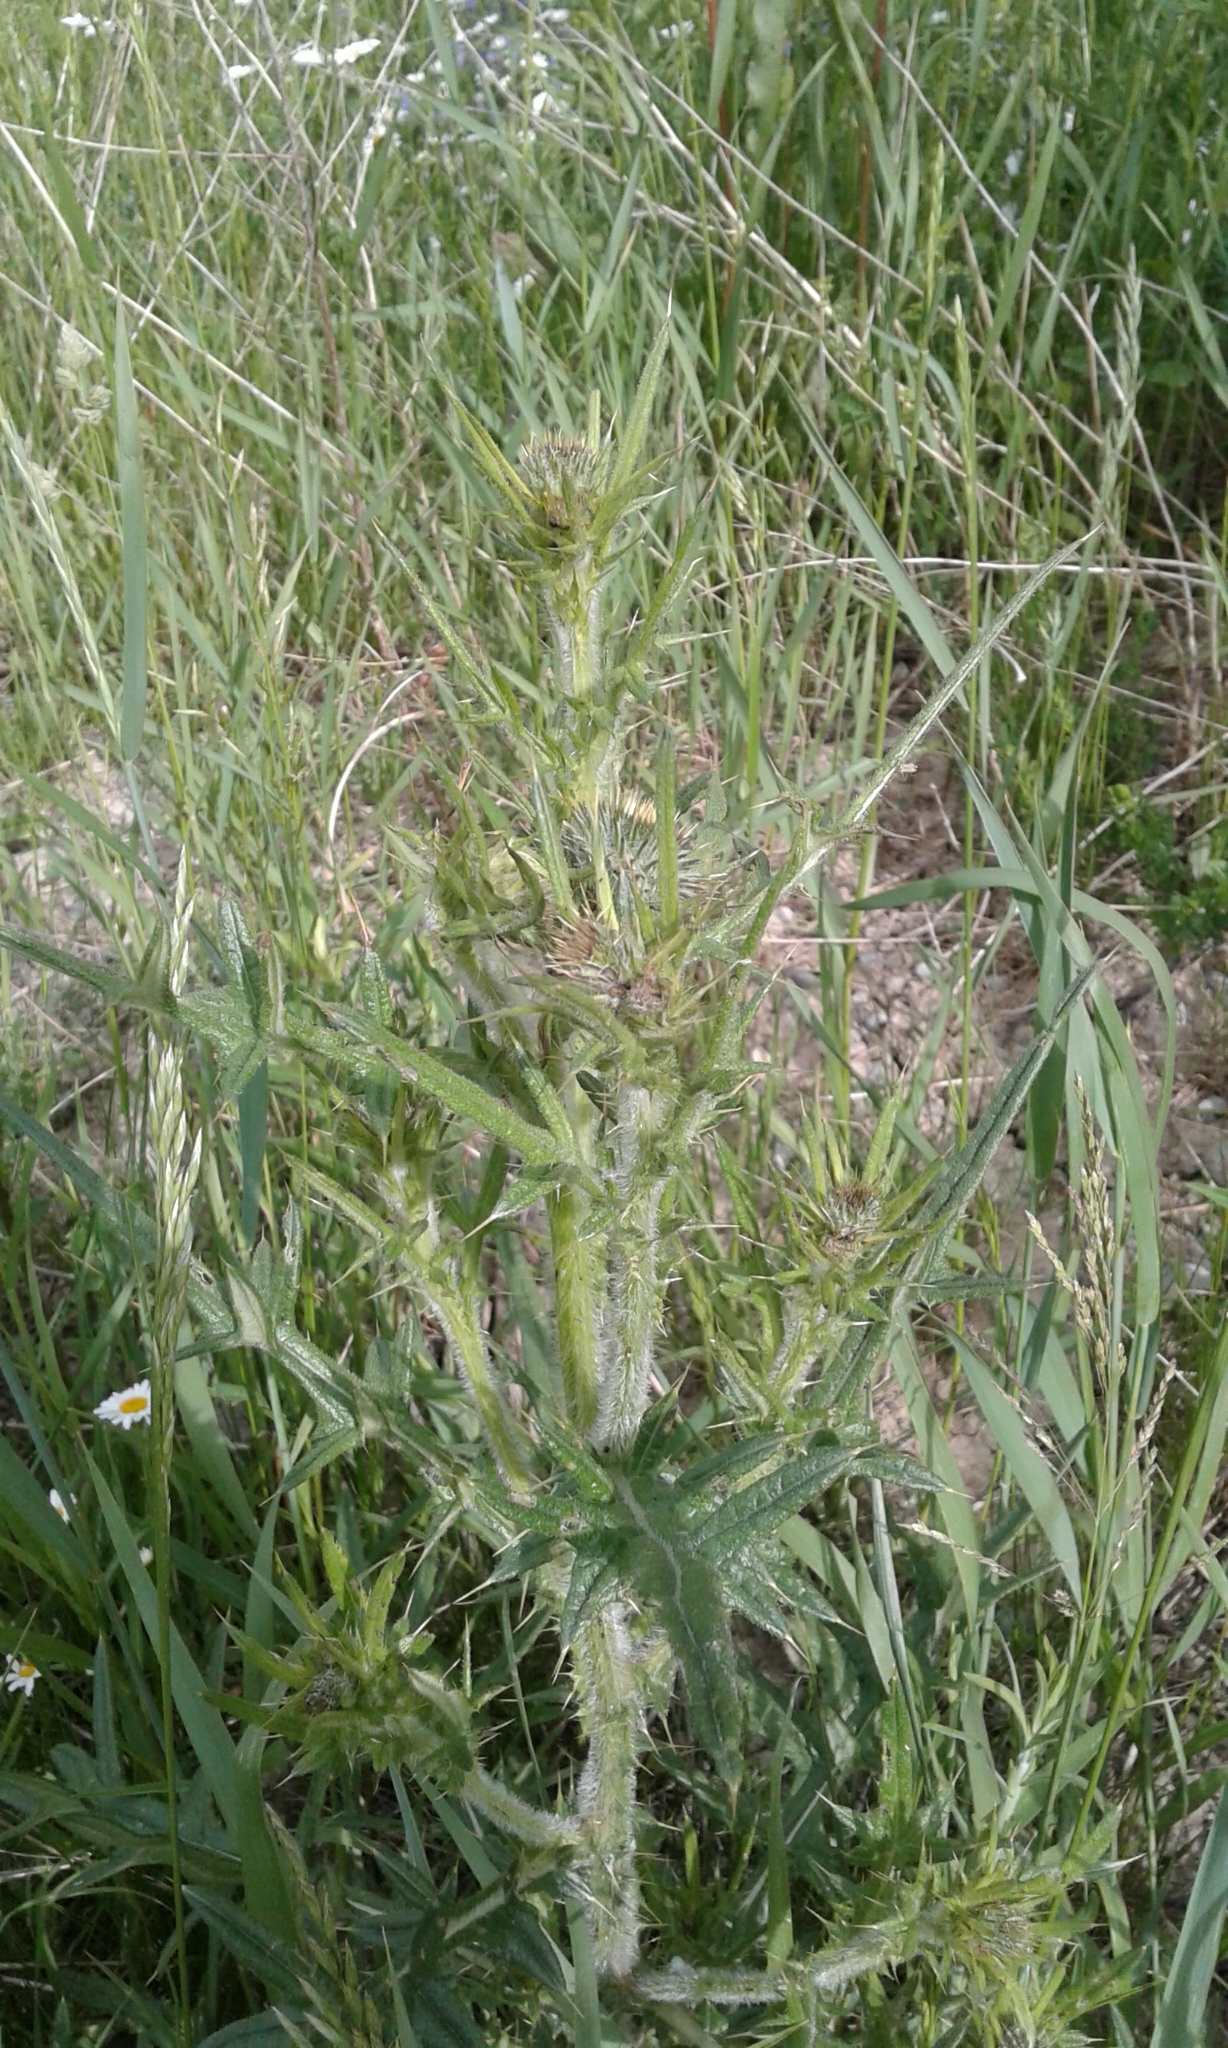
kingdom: Plantae
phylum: Tracheophyta
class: Magnoliopsida
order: Asterales
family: Asteraceae
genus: Cirsium
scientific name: Cirsium vulgare
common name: Bull thistle
